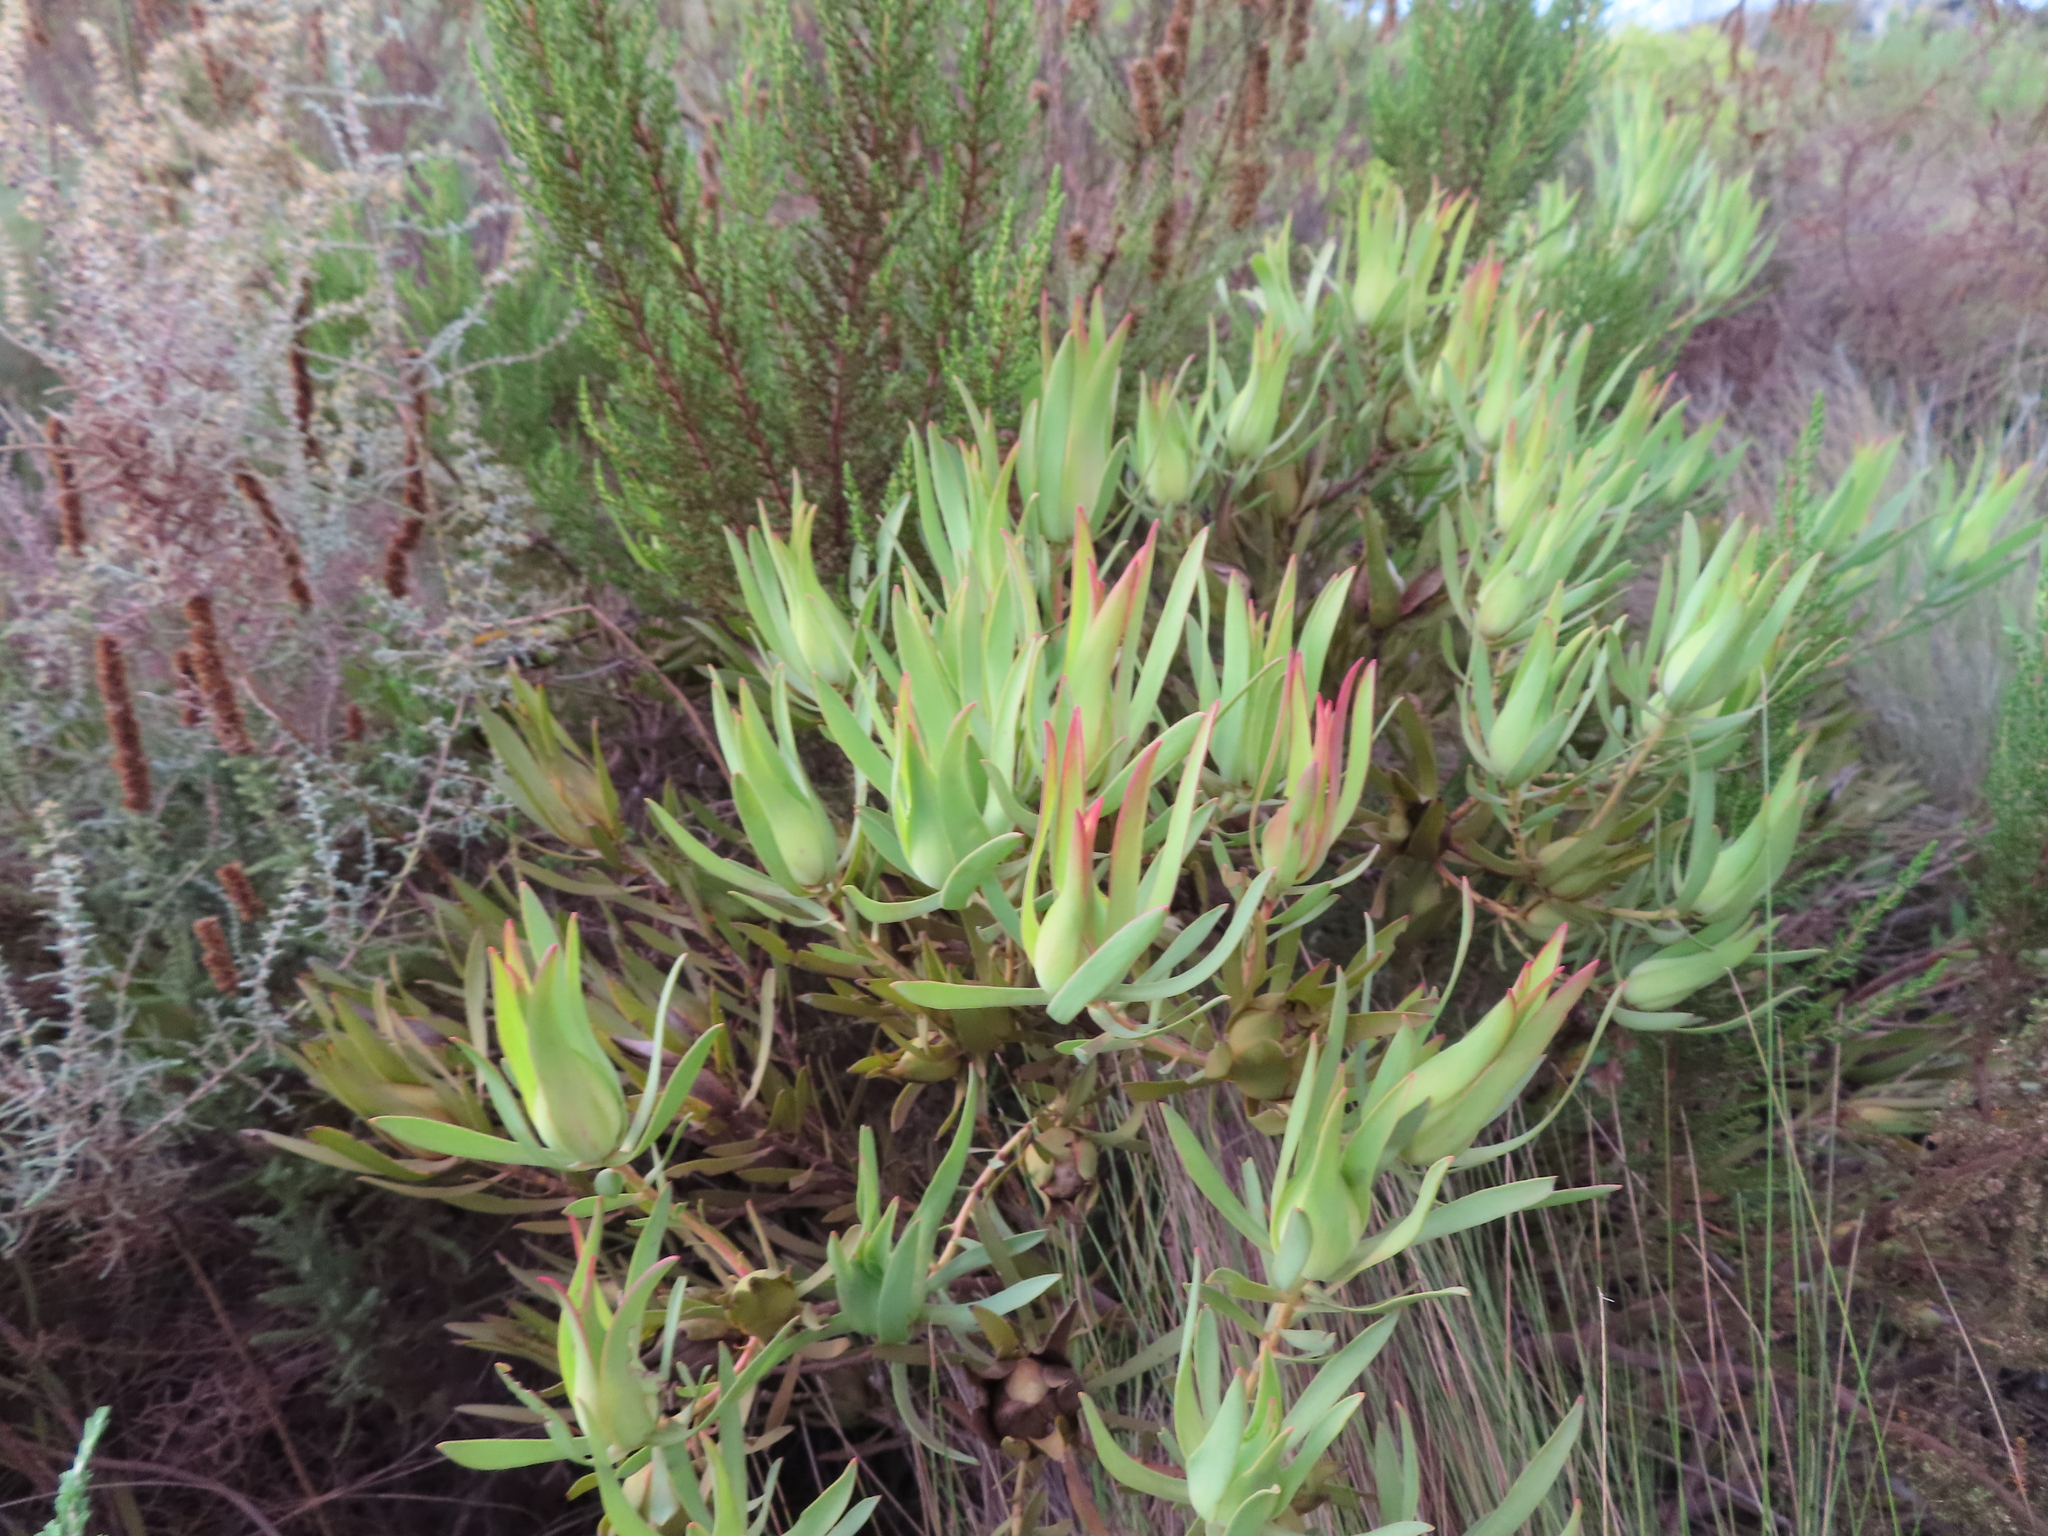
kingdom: Plantae
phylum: Tracheophyta
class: Magnoliopsida
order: Proteales
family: Proteaceae
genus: Leucadendron
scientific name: Leucadendron salignum
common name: Common sunshine conebush
